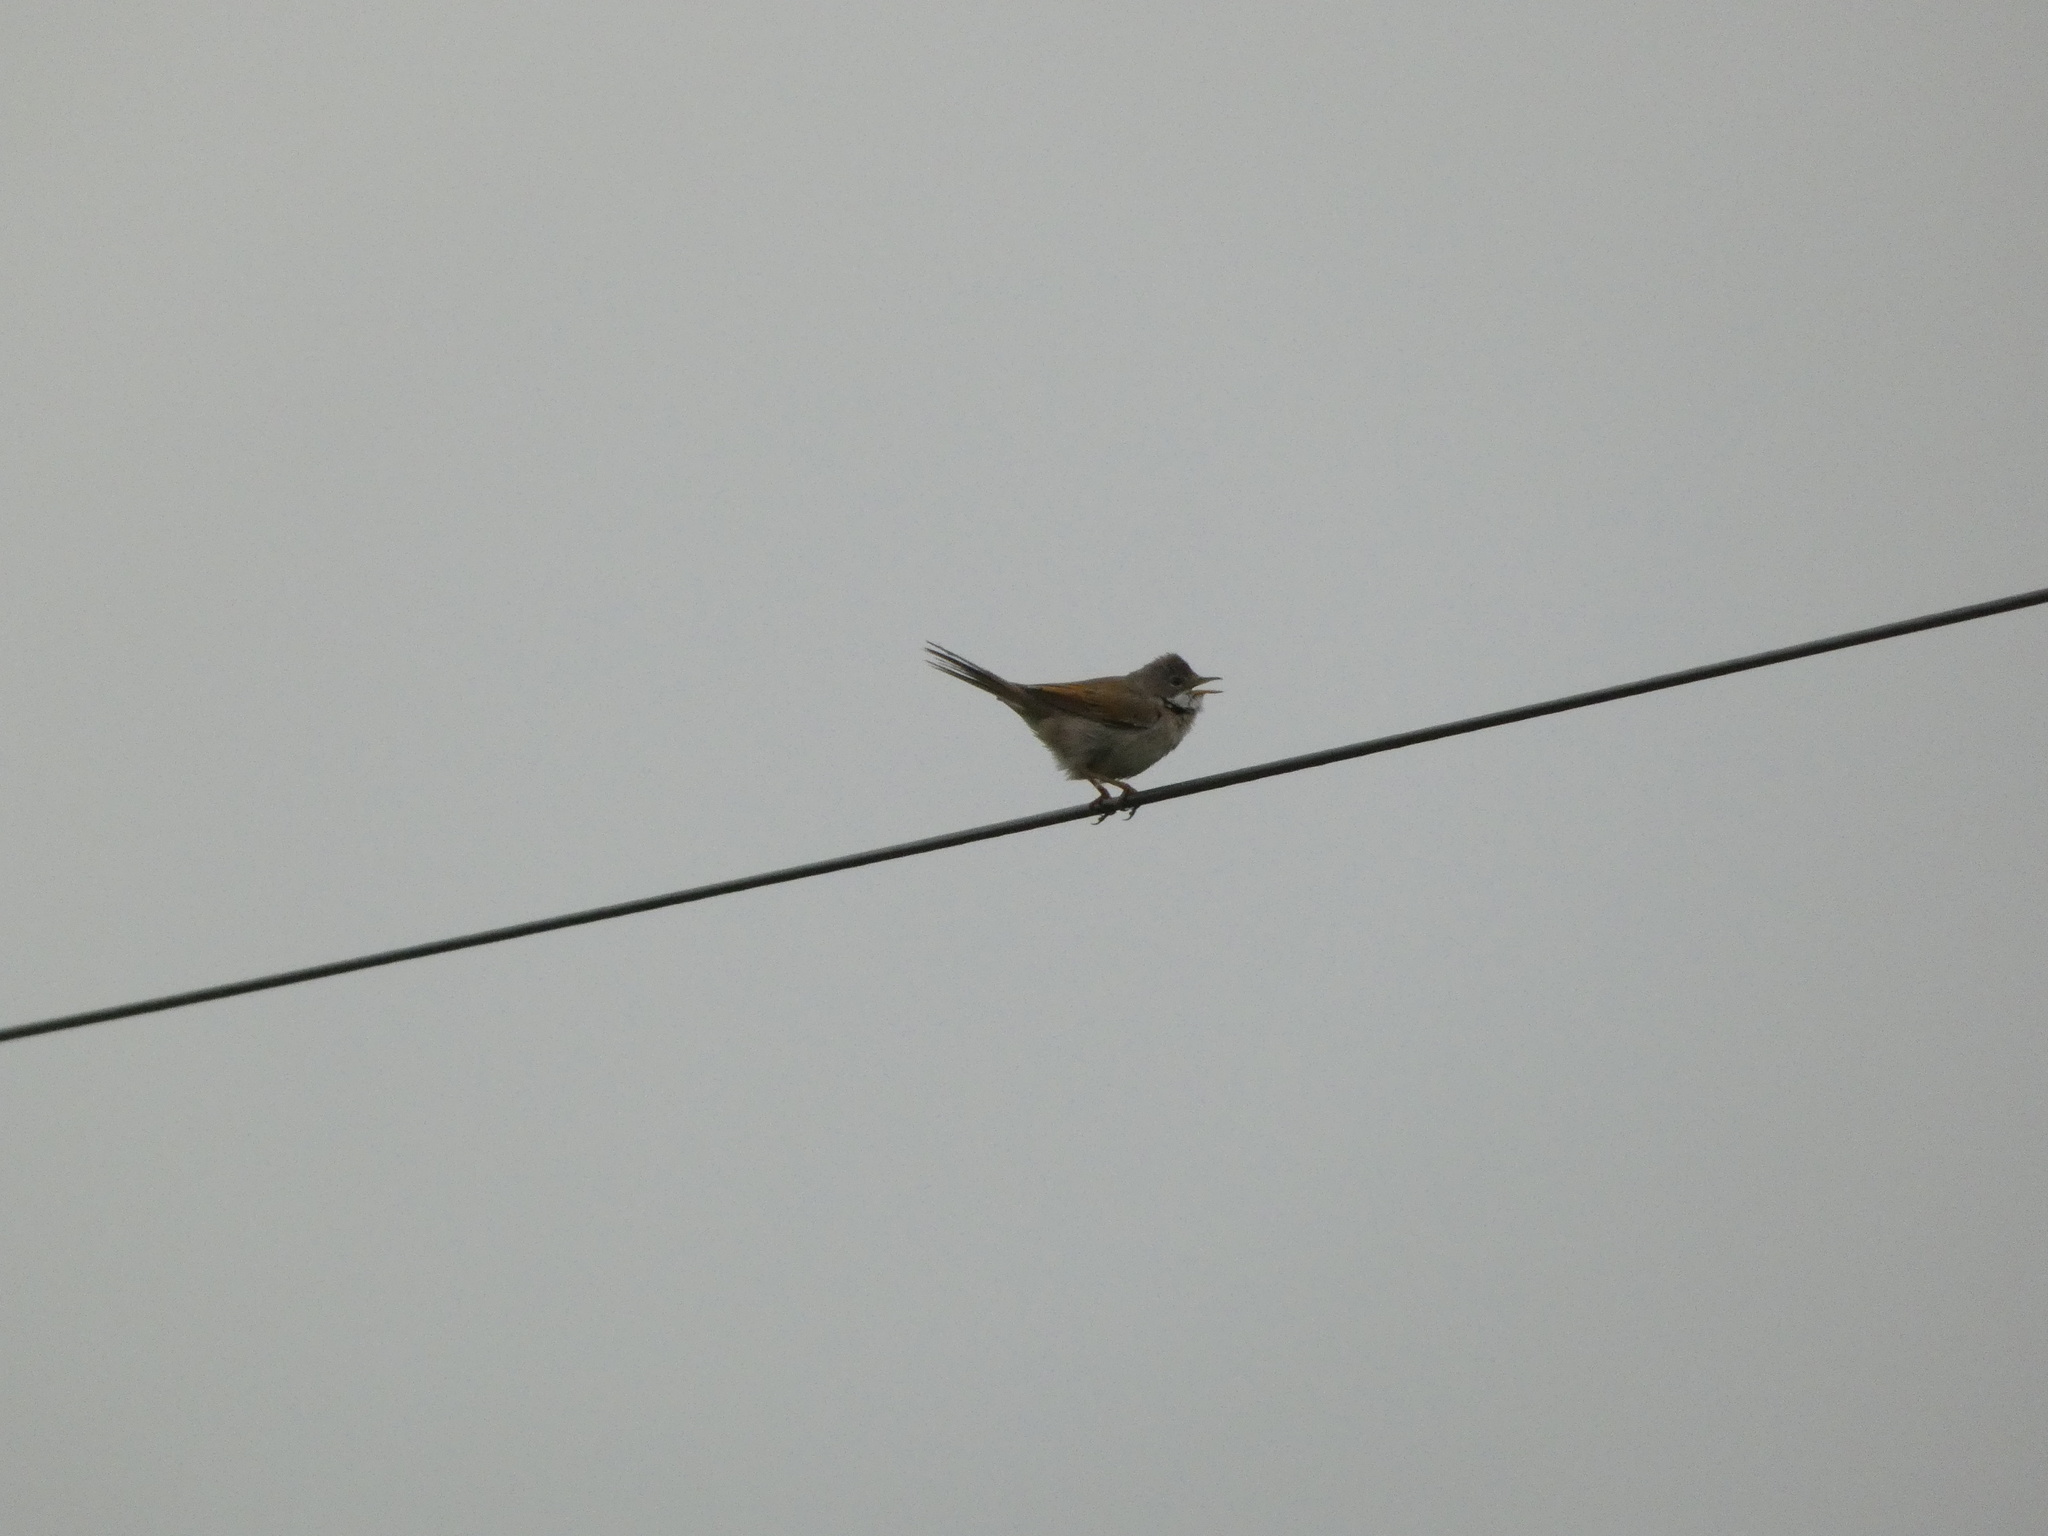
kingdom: Animalia
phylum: Chordata
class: Aves
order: Passeriformes
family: Sylviidae
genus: Sylvia
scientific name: Sylvia communis
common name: Common whitethroat
